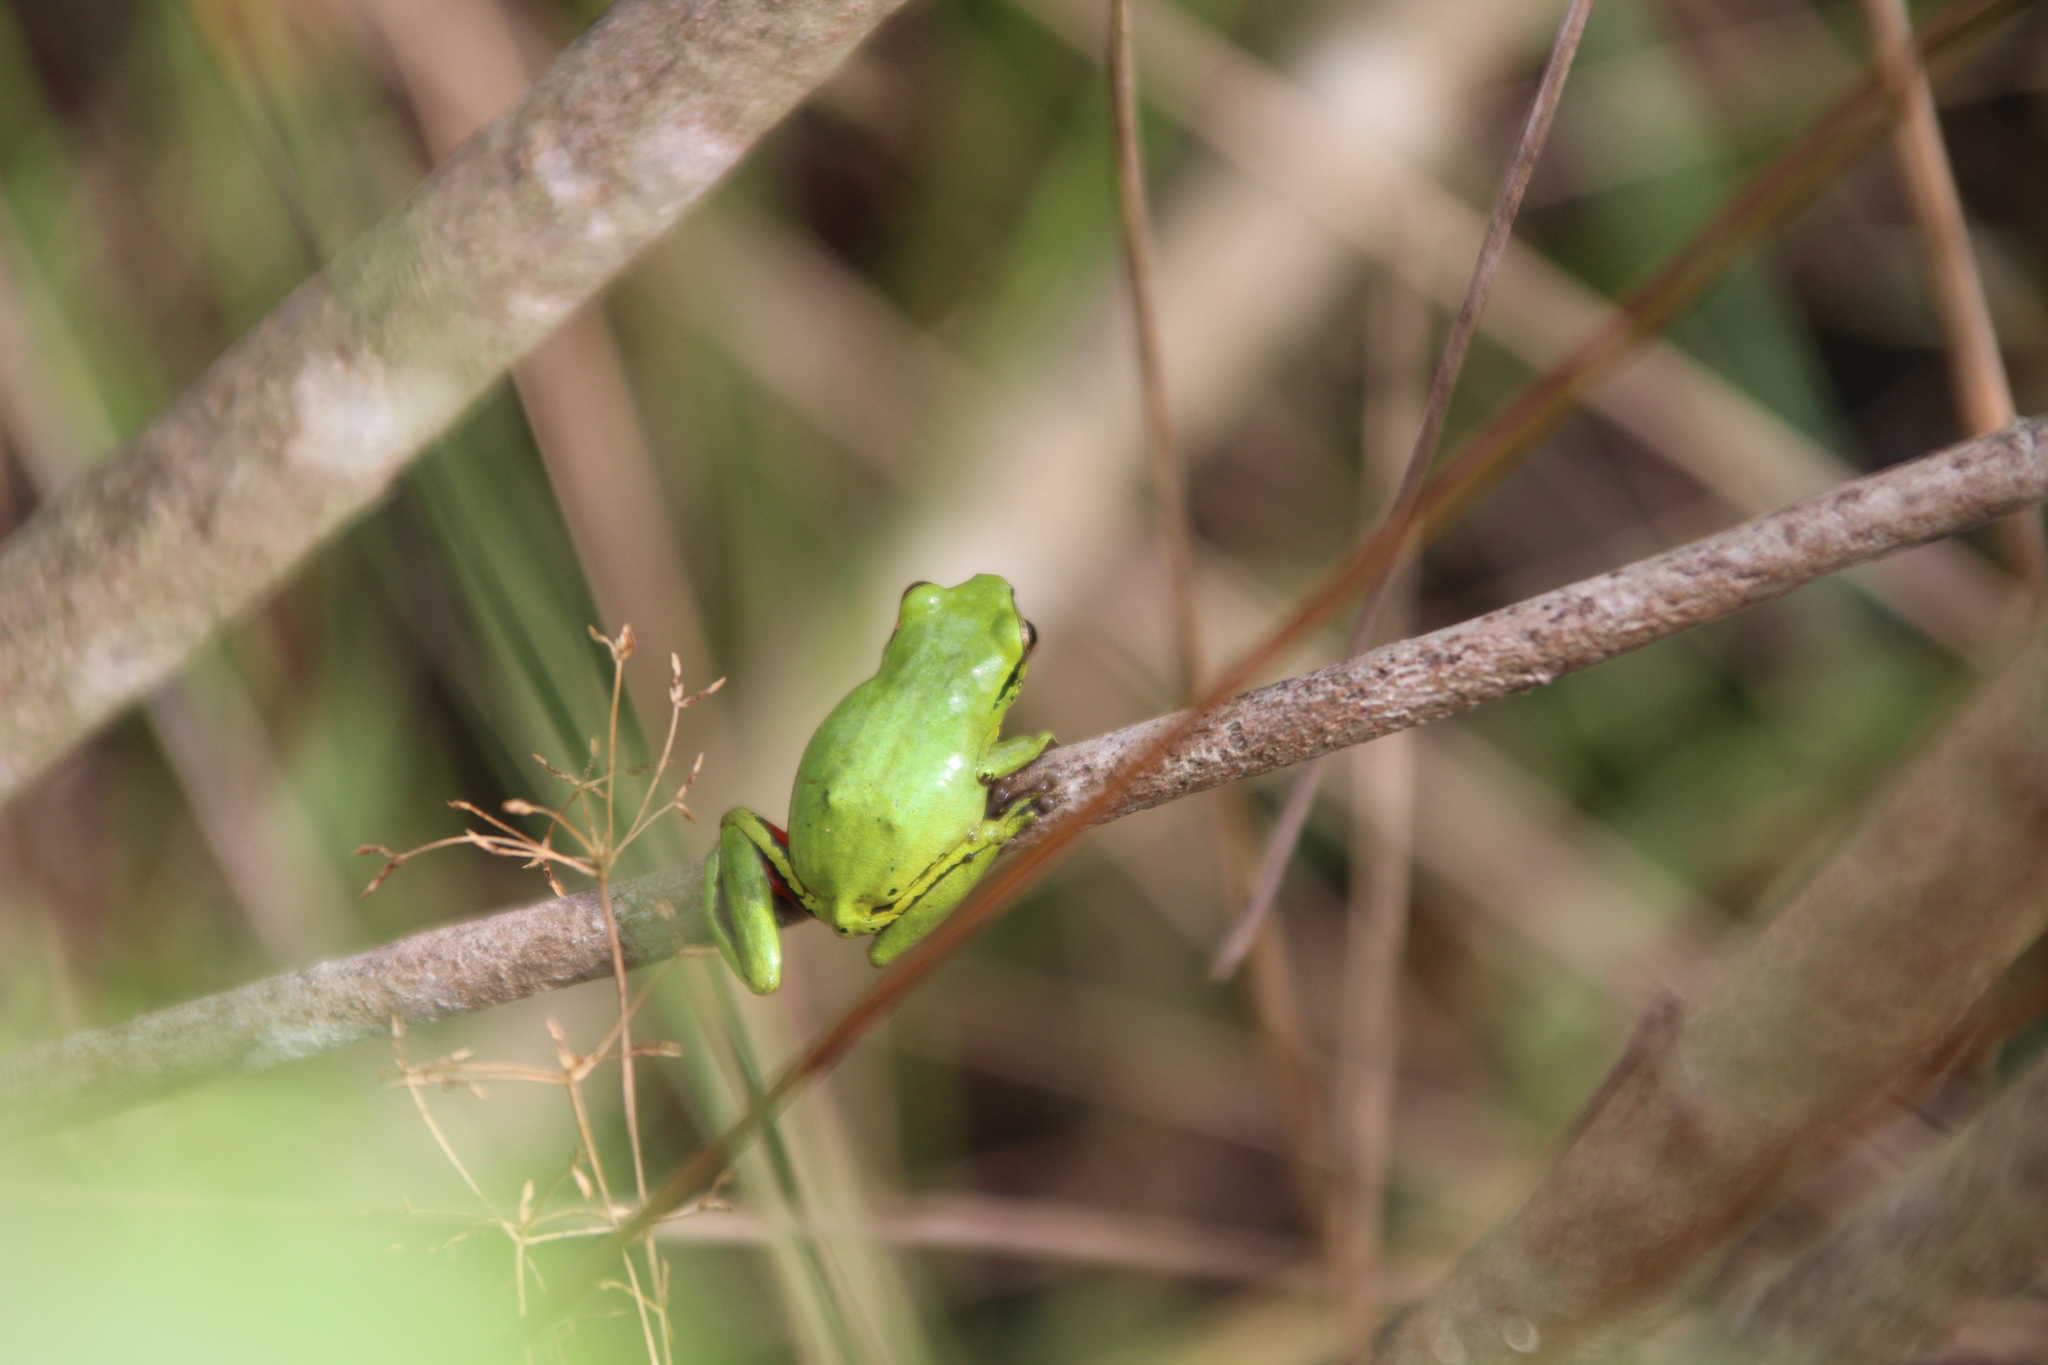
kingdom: Animalia
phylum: Chordata
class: Amphibia
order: Anura
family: Hyperoliidae
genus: Hyperolius
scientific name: Hyperolius cinnamomeoventris
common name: Duque reed frog
